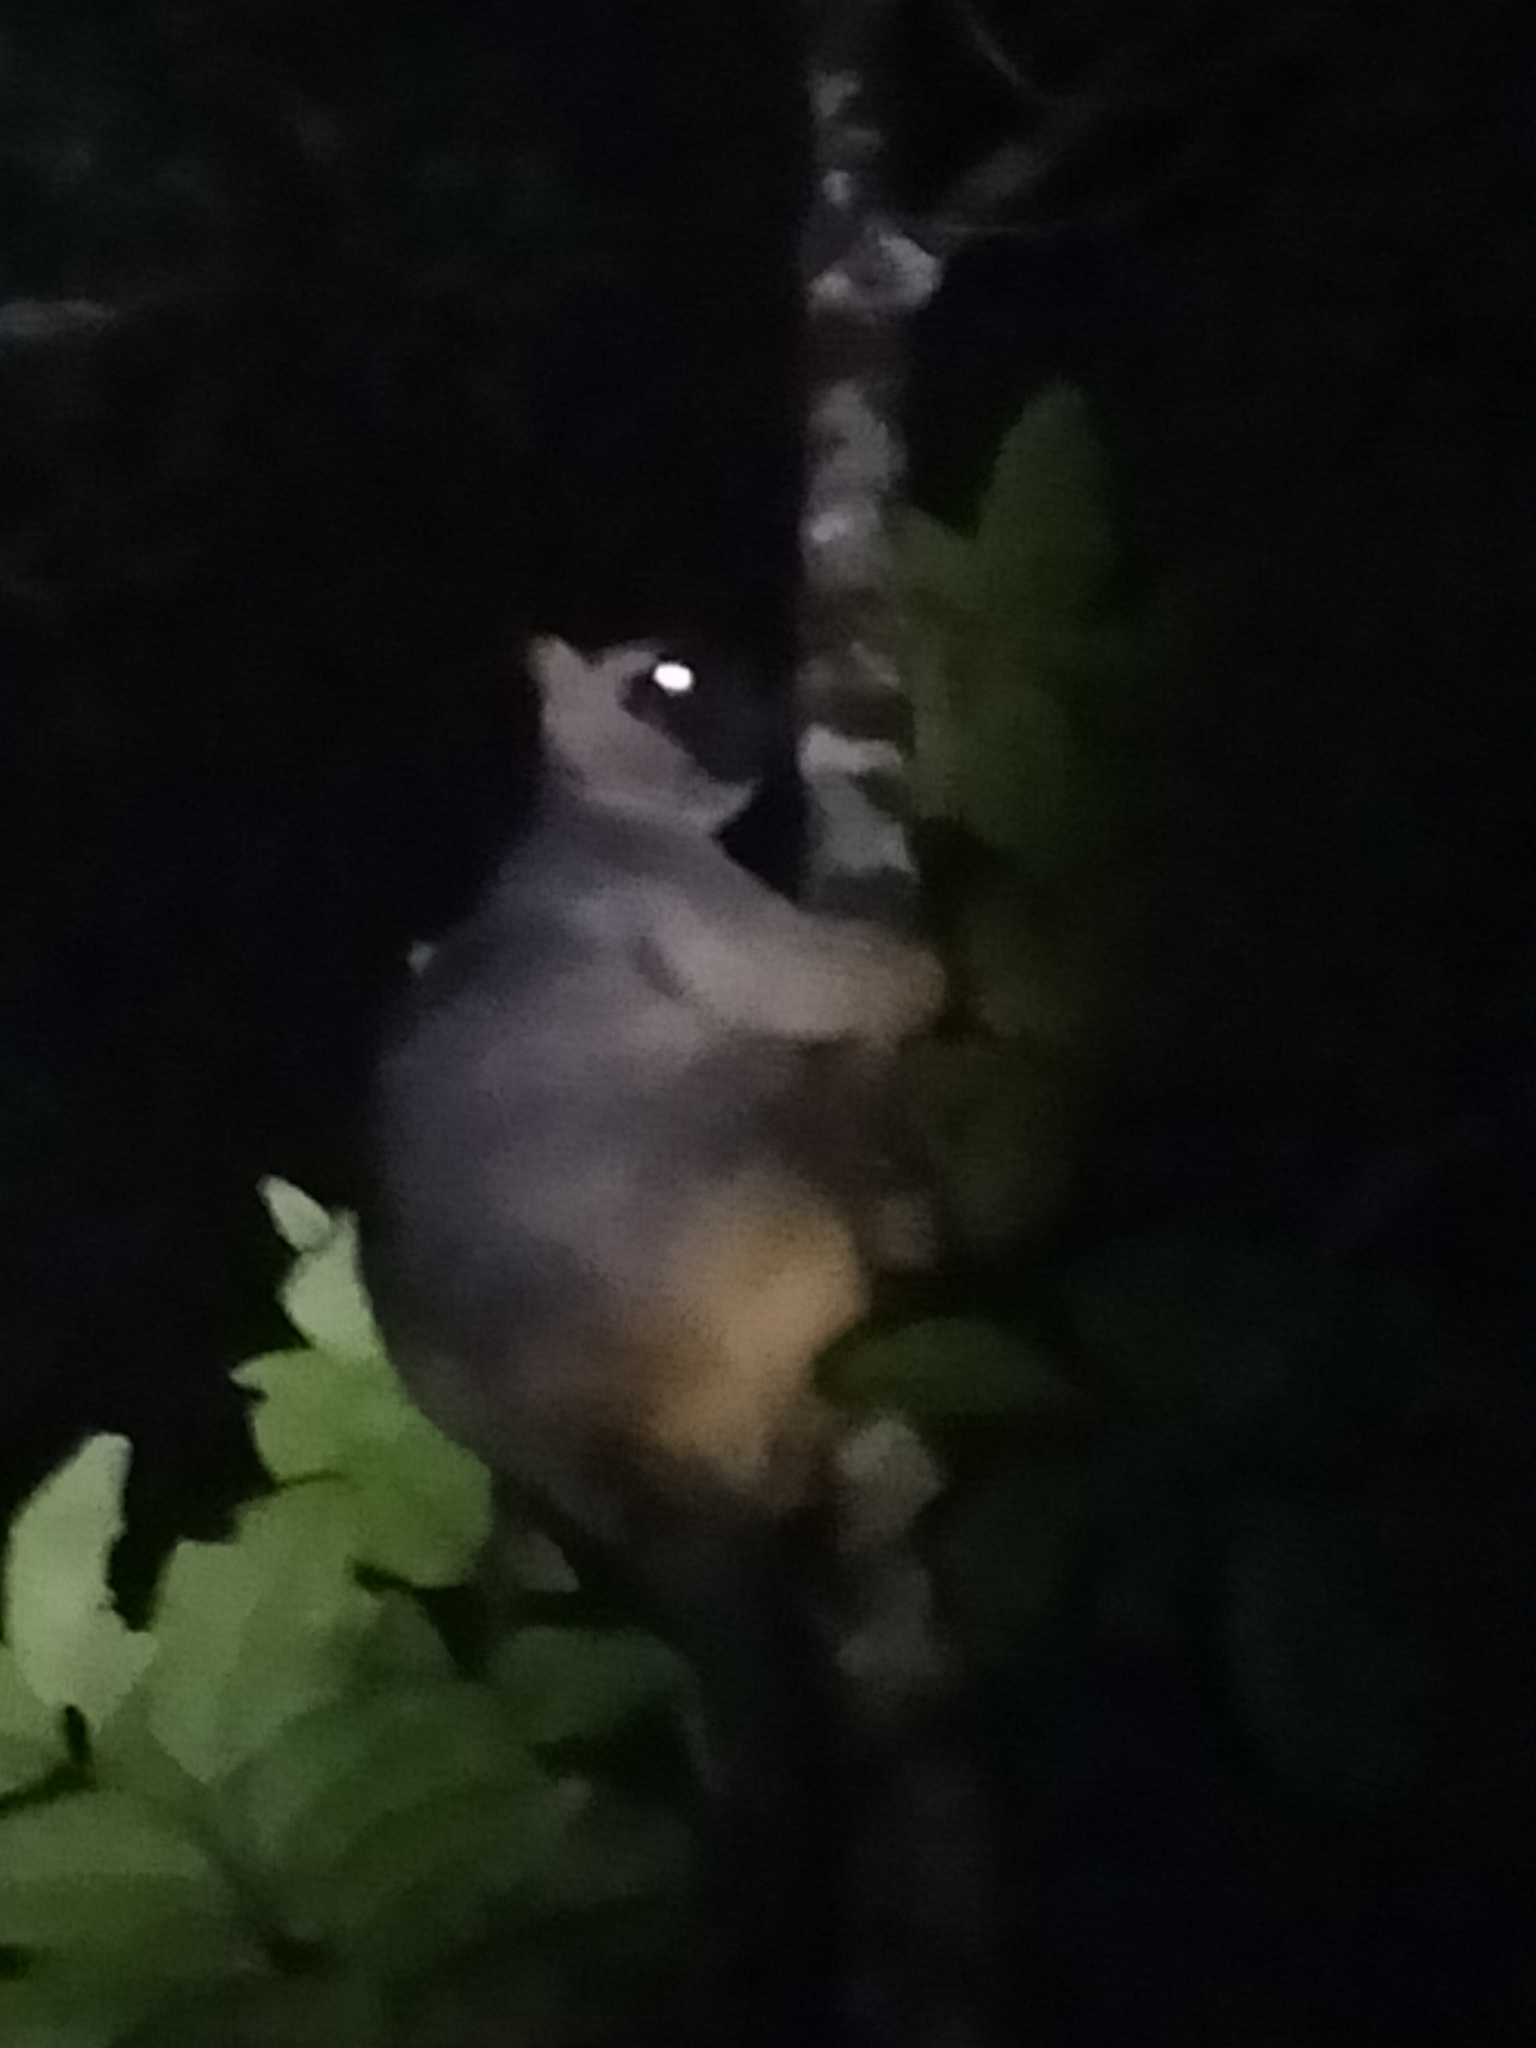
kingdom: Animalia
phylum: Chordata
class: Mammalia
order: Diprotodontia
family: Macropodidae
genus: Dendrolagus
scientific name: Dendrolagus lumholtzi
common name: Lumholtz's tree kangaroo
